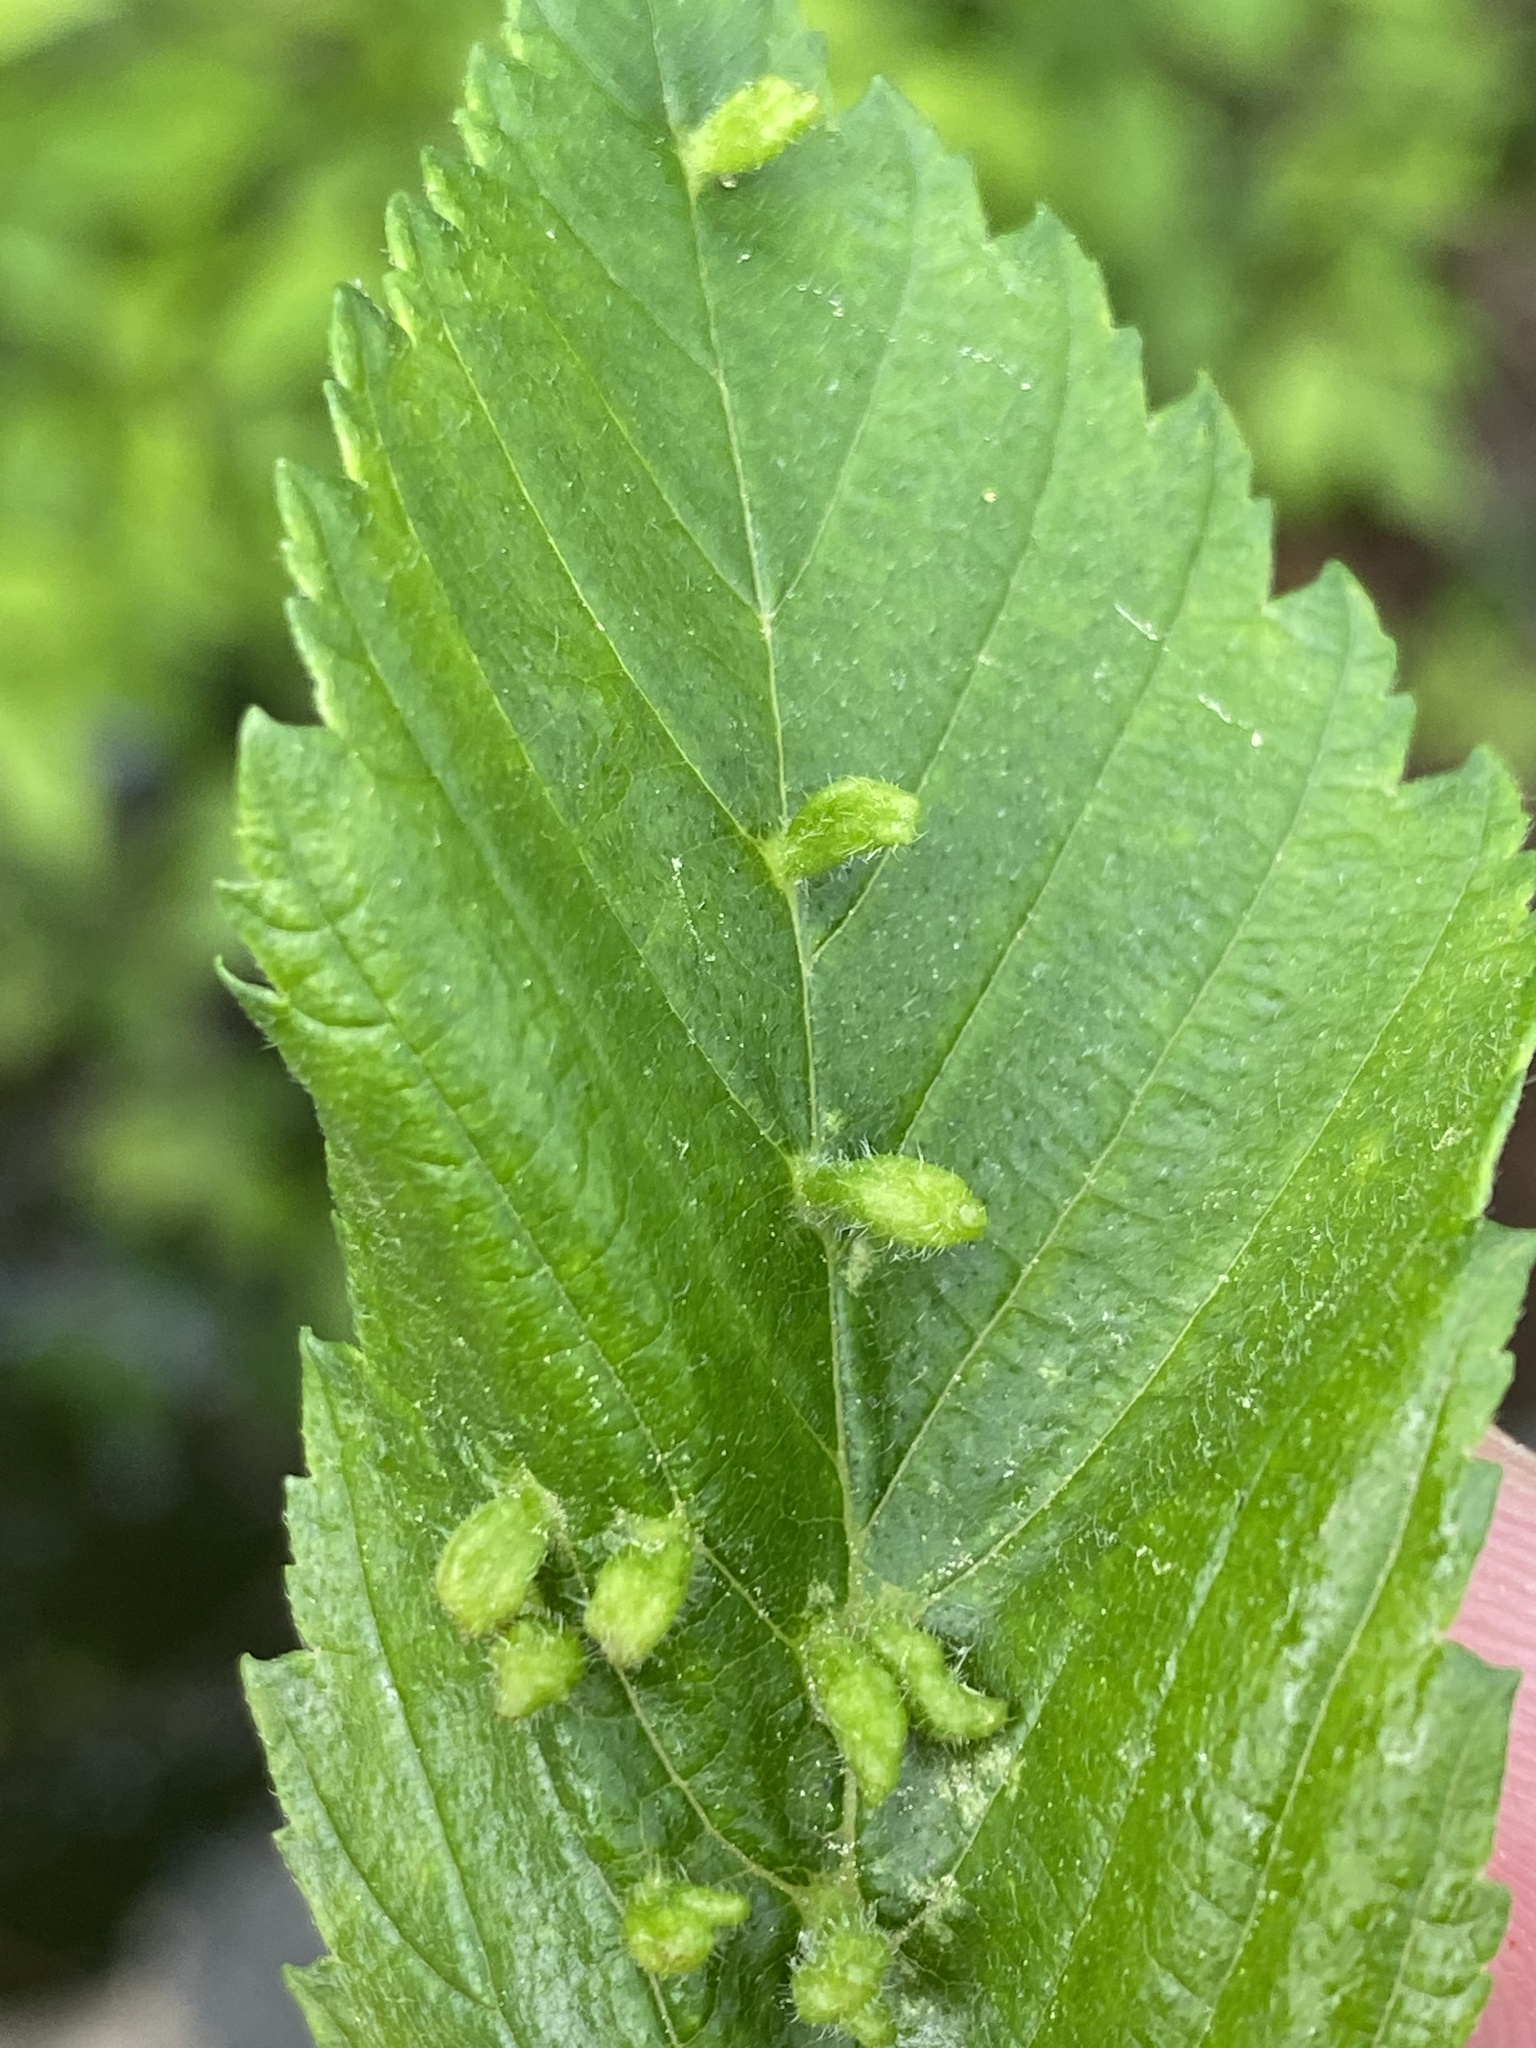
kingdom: Animalia
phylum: Arthropoda
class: Arachnida
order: Trombidiformes
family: Eriophyidae
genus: Aceria
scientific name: Aceria
